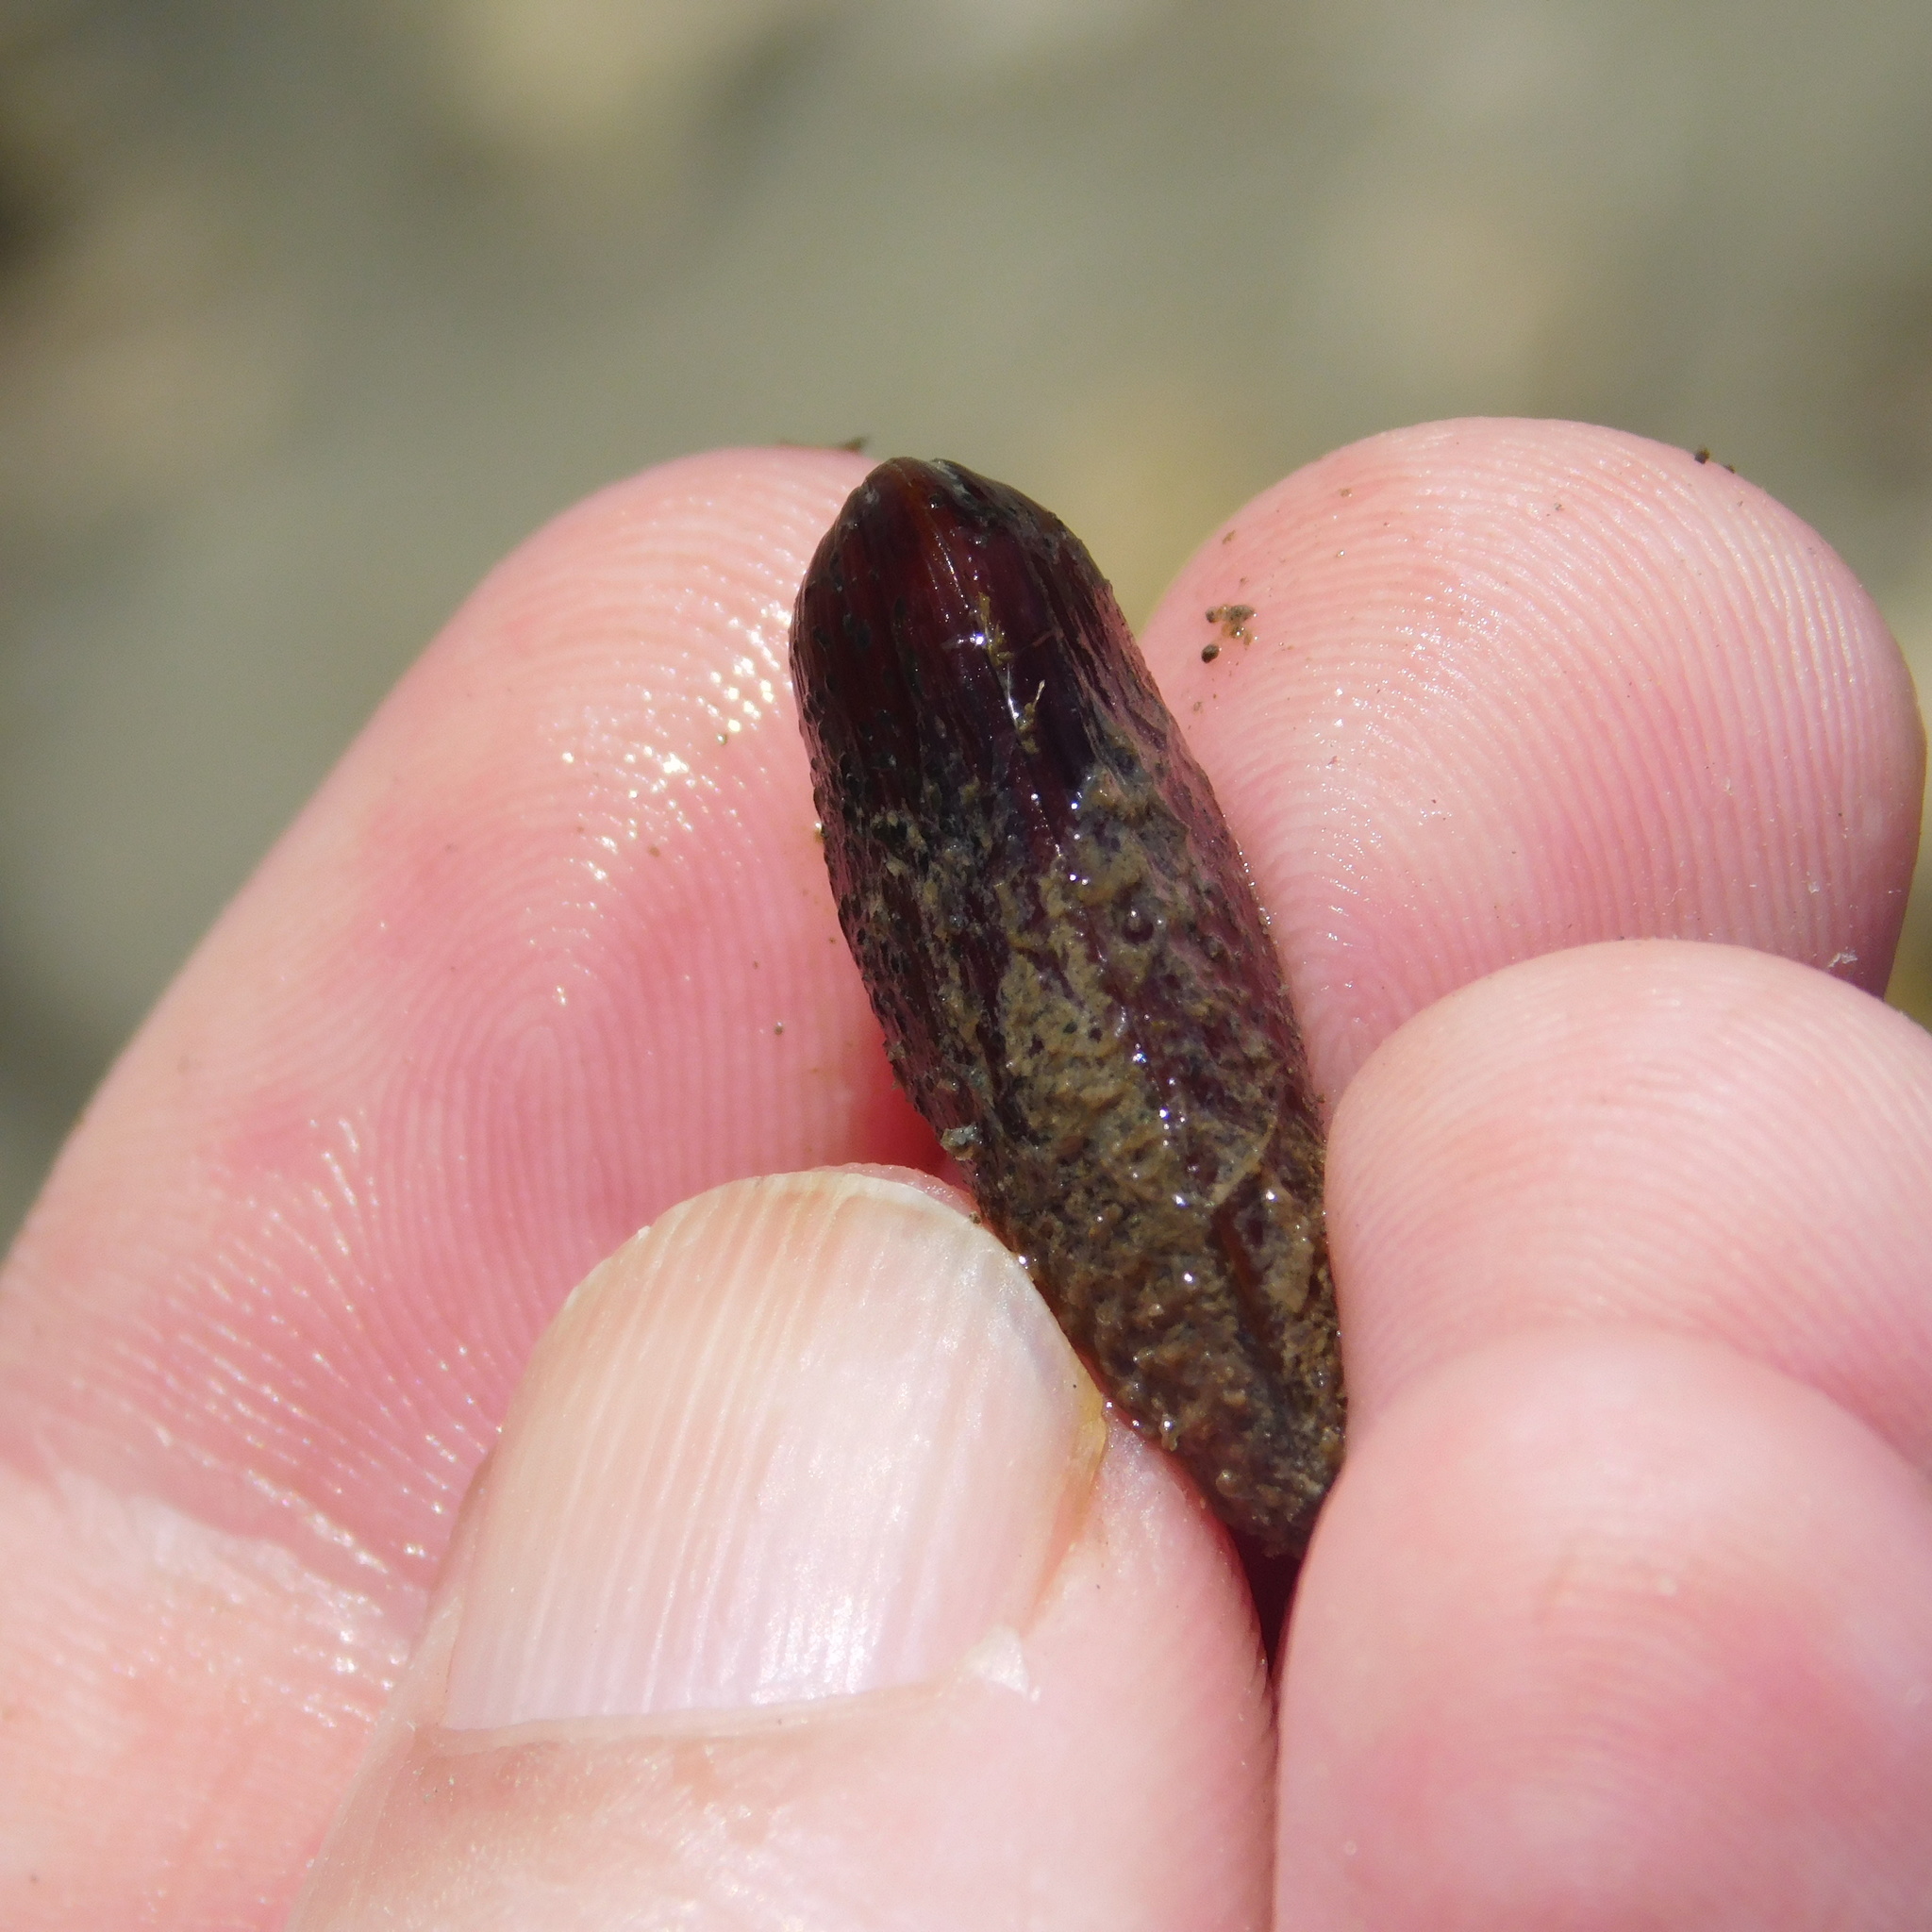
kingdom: Animalia
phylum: Mollusca
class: Bivalvia
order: Mytilida
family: Mytilidae
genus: Zelithophaga
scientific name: Zelithophaga truncata
